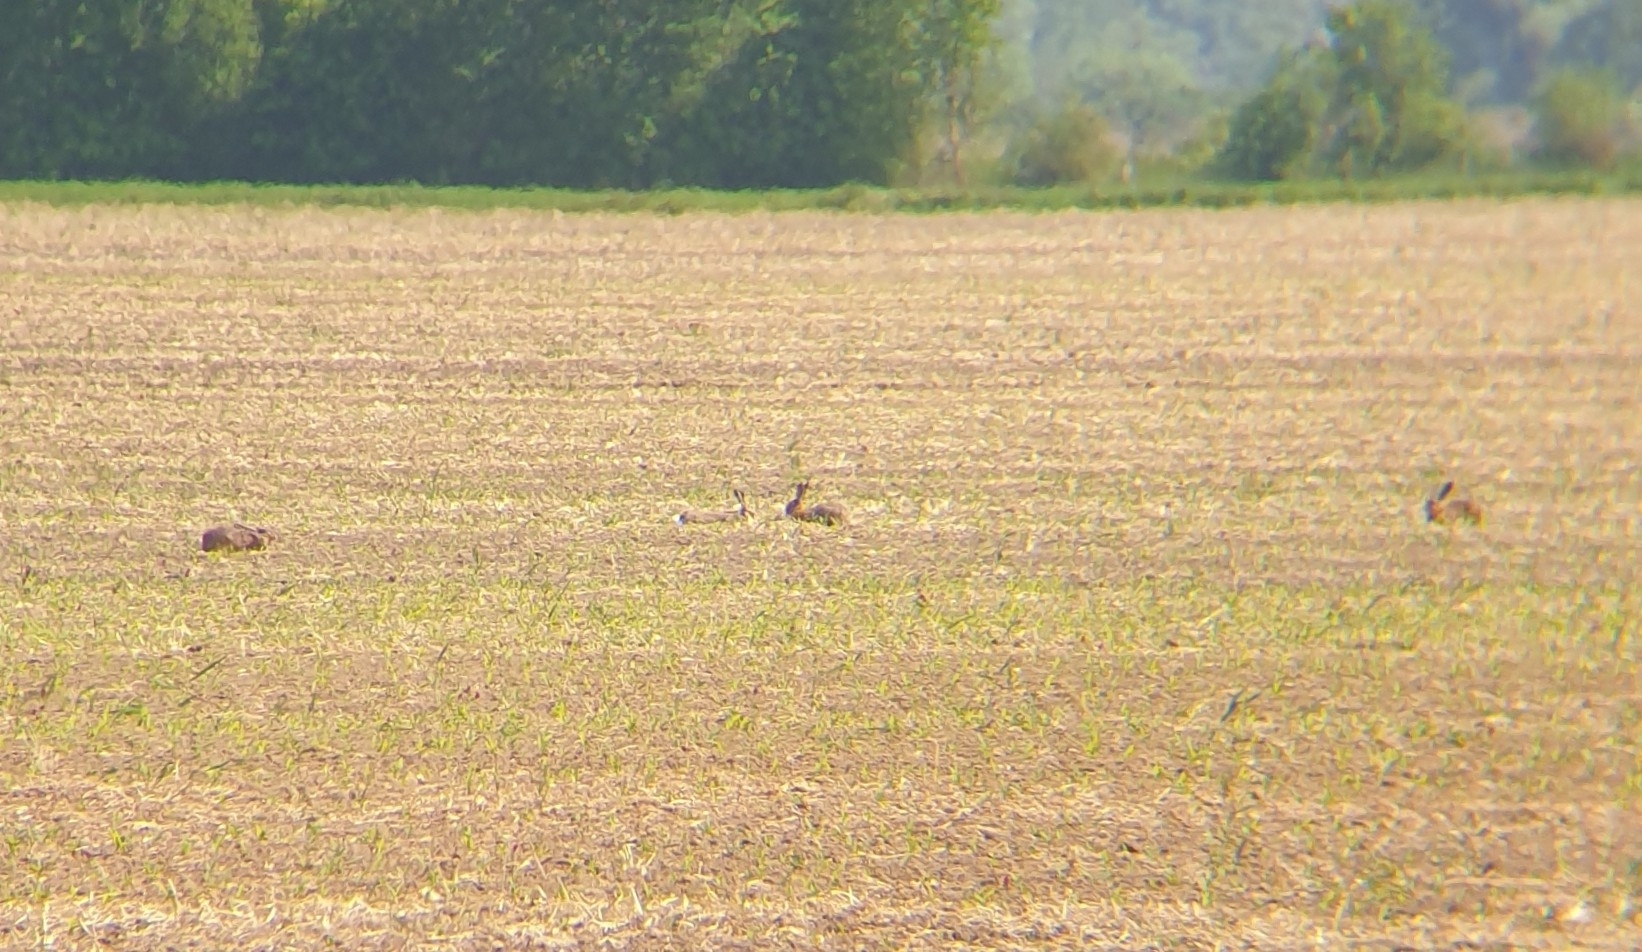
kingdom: Animalia
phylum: Chordata
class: Mammalia
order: Lagomorpha
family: Leporidae
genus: Lepus
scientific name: Lepus europaeus
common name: European hare
